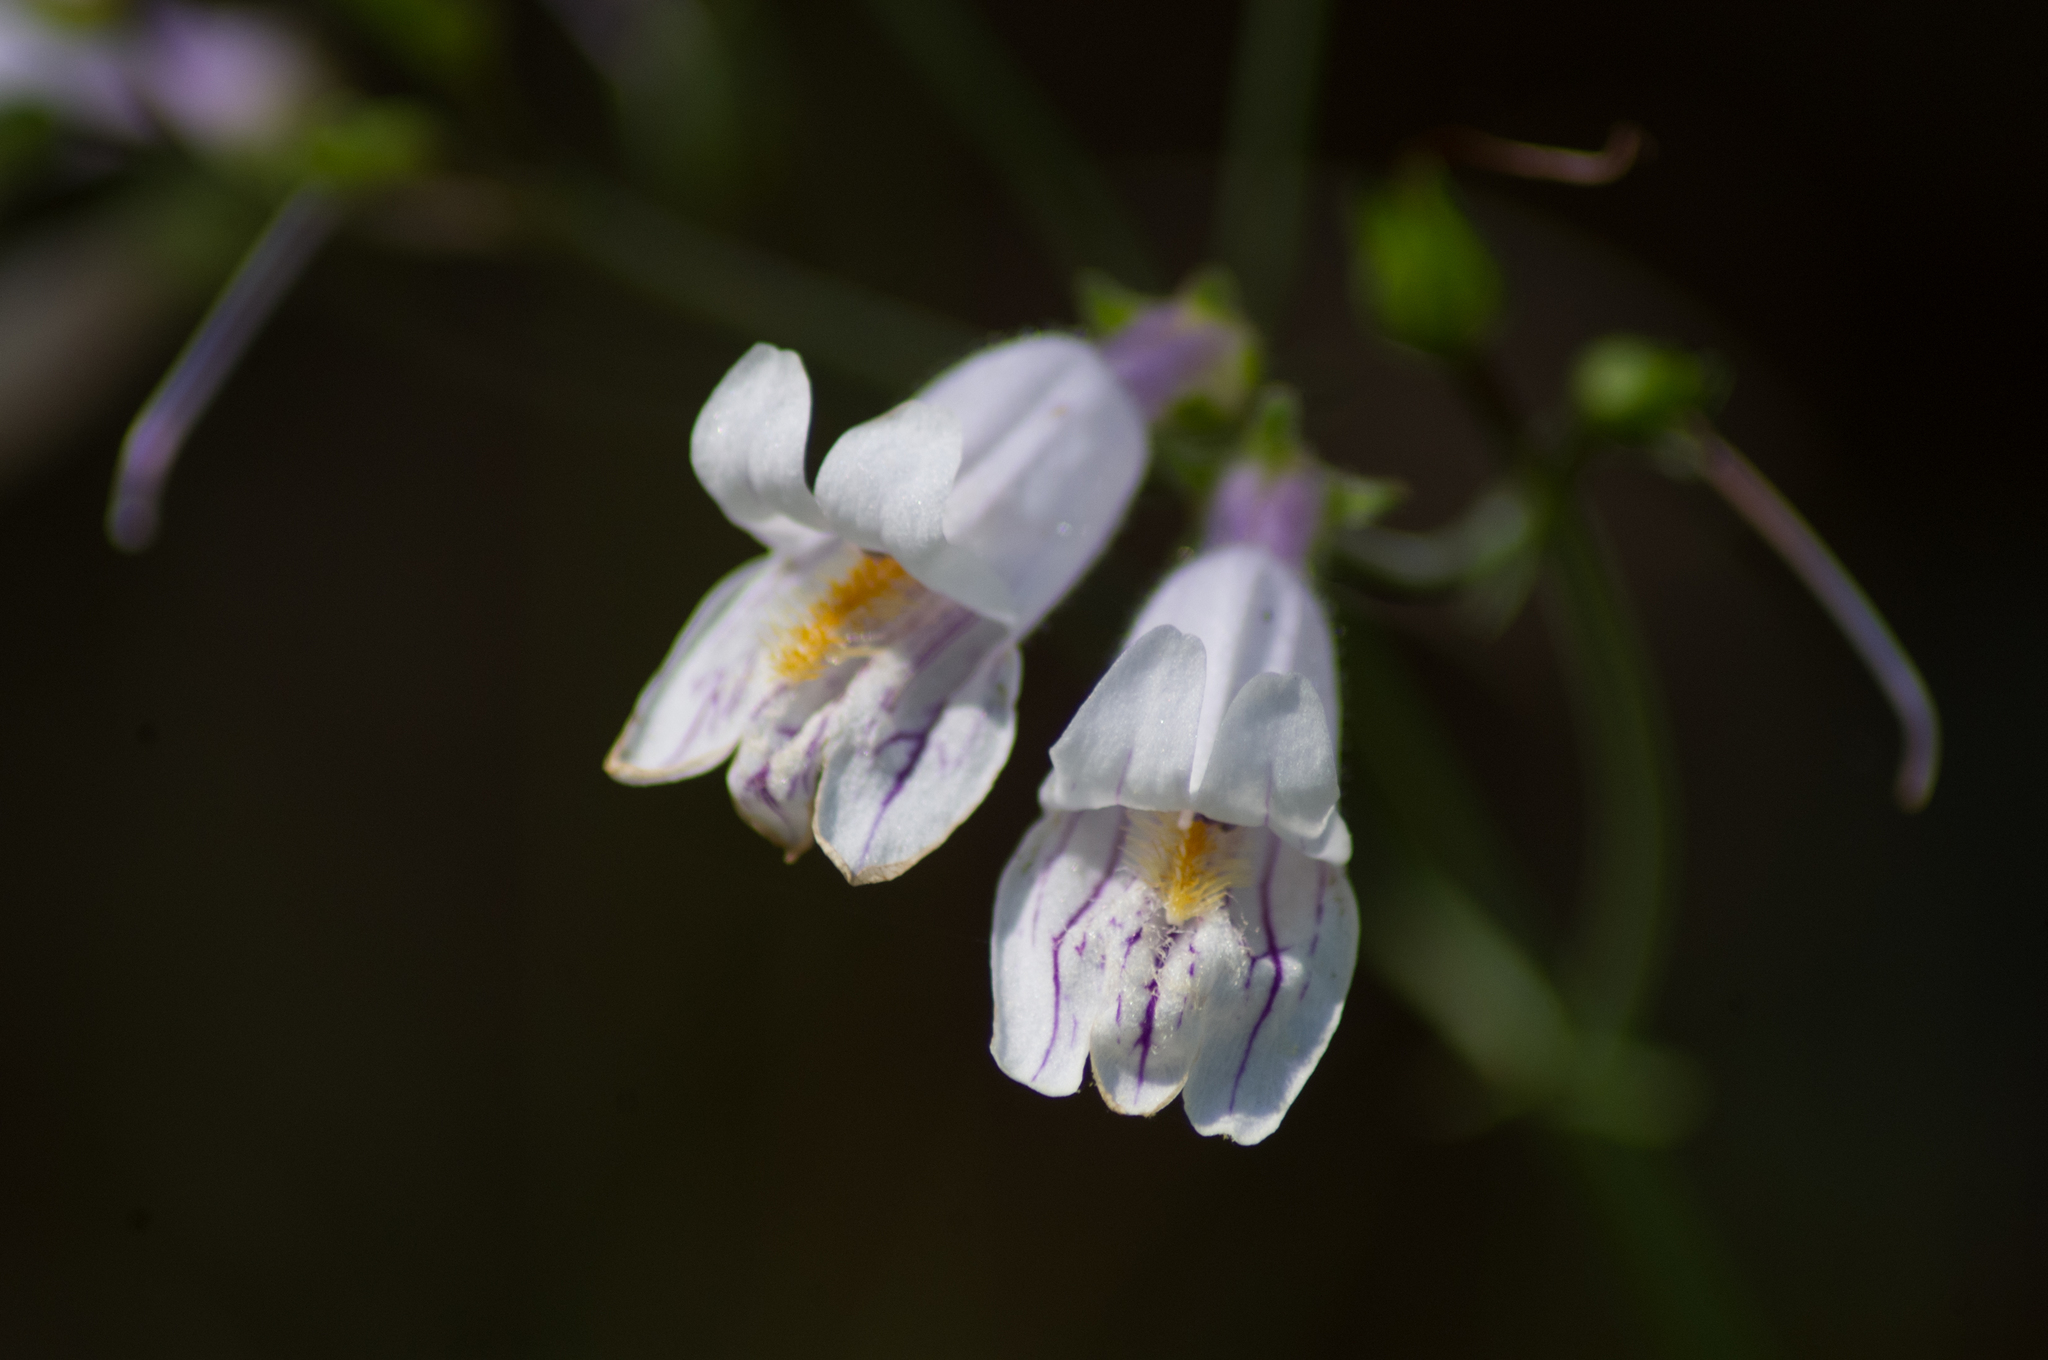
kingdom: Plantae
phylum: Tracheophyta
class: Magnoliopsida
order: Lamiales
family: Plantaginaceae
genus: Penstemon
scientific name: Penstemon laxiflorus
